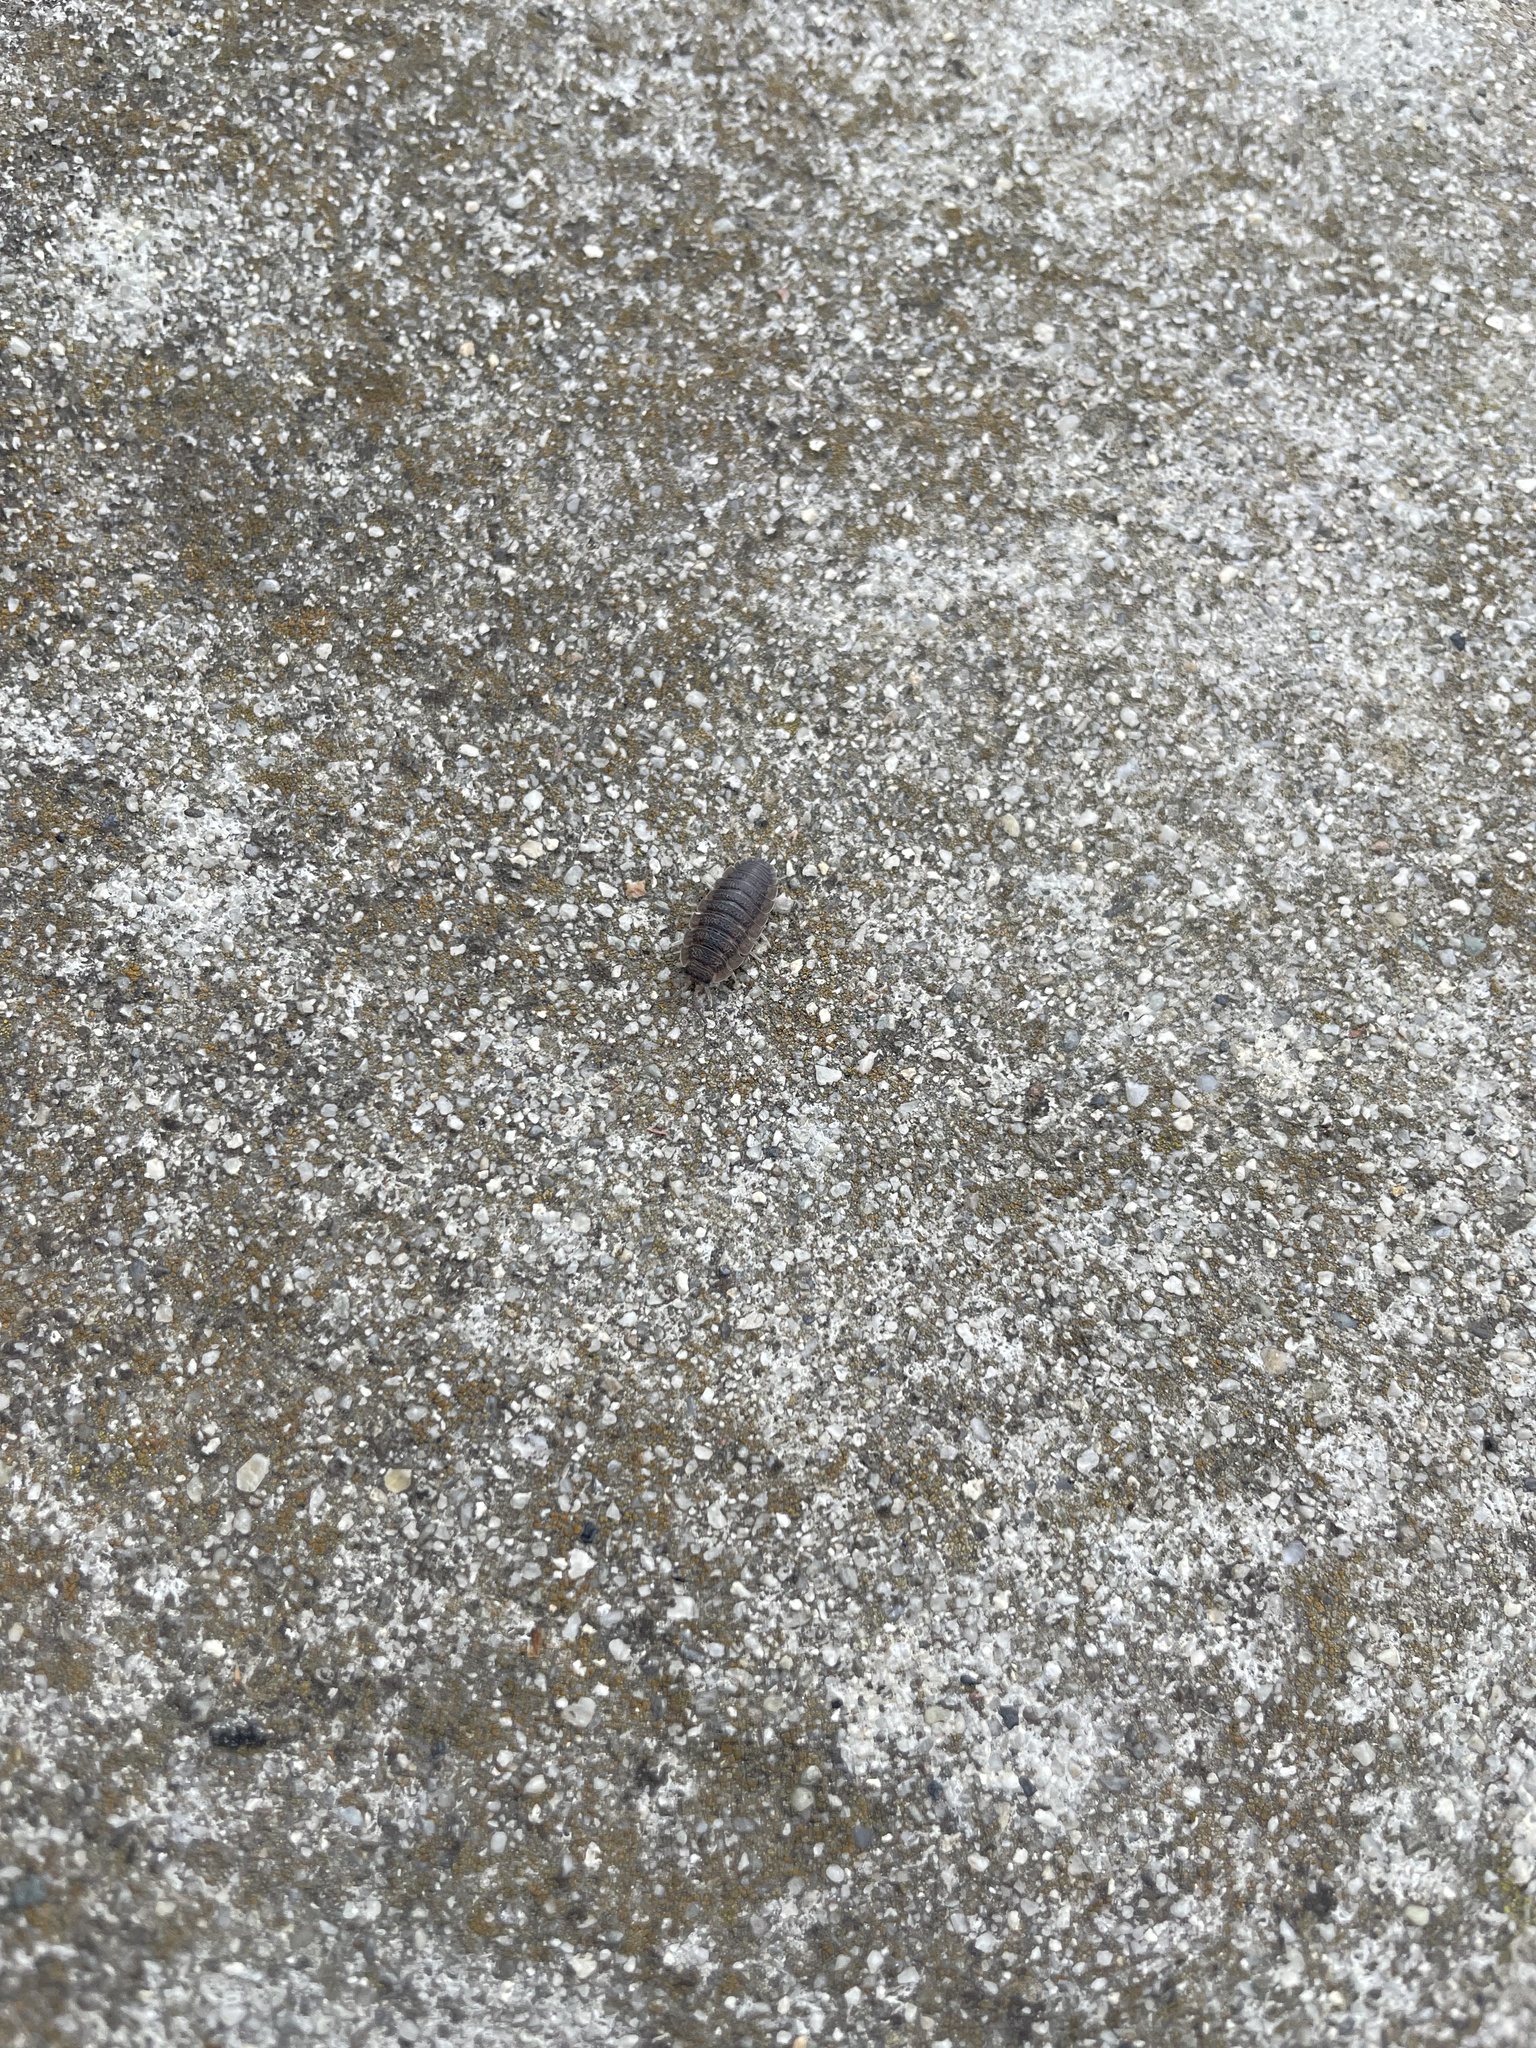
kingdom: Animalia
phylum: Arthropoda
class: Malacostraca
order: Isopoda
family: Porcellionidae
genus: Porcellio
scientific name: Porcellio scaber
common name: Common rough woodlouse
